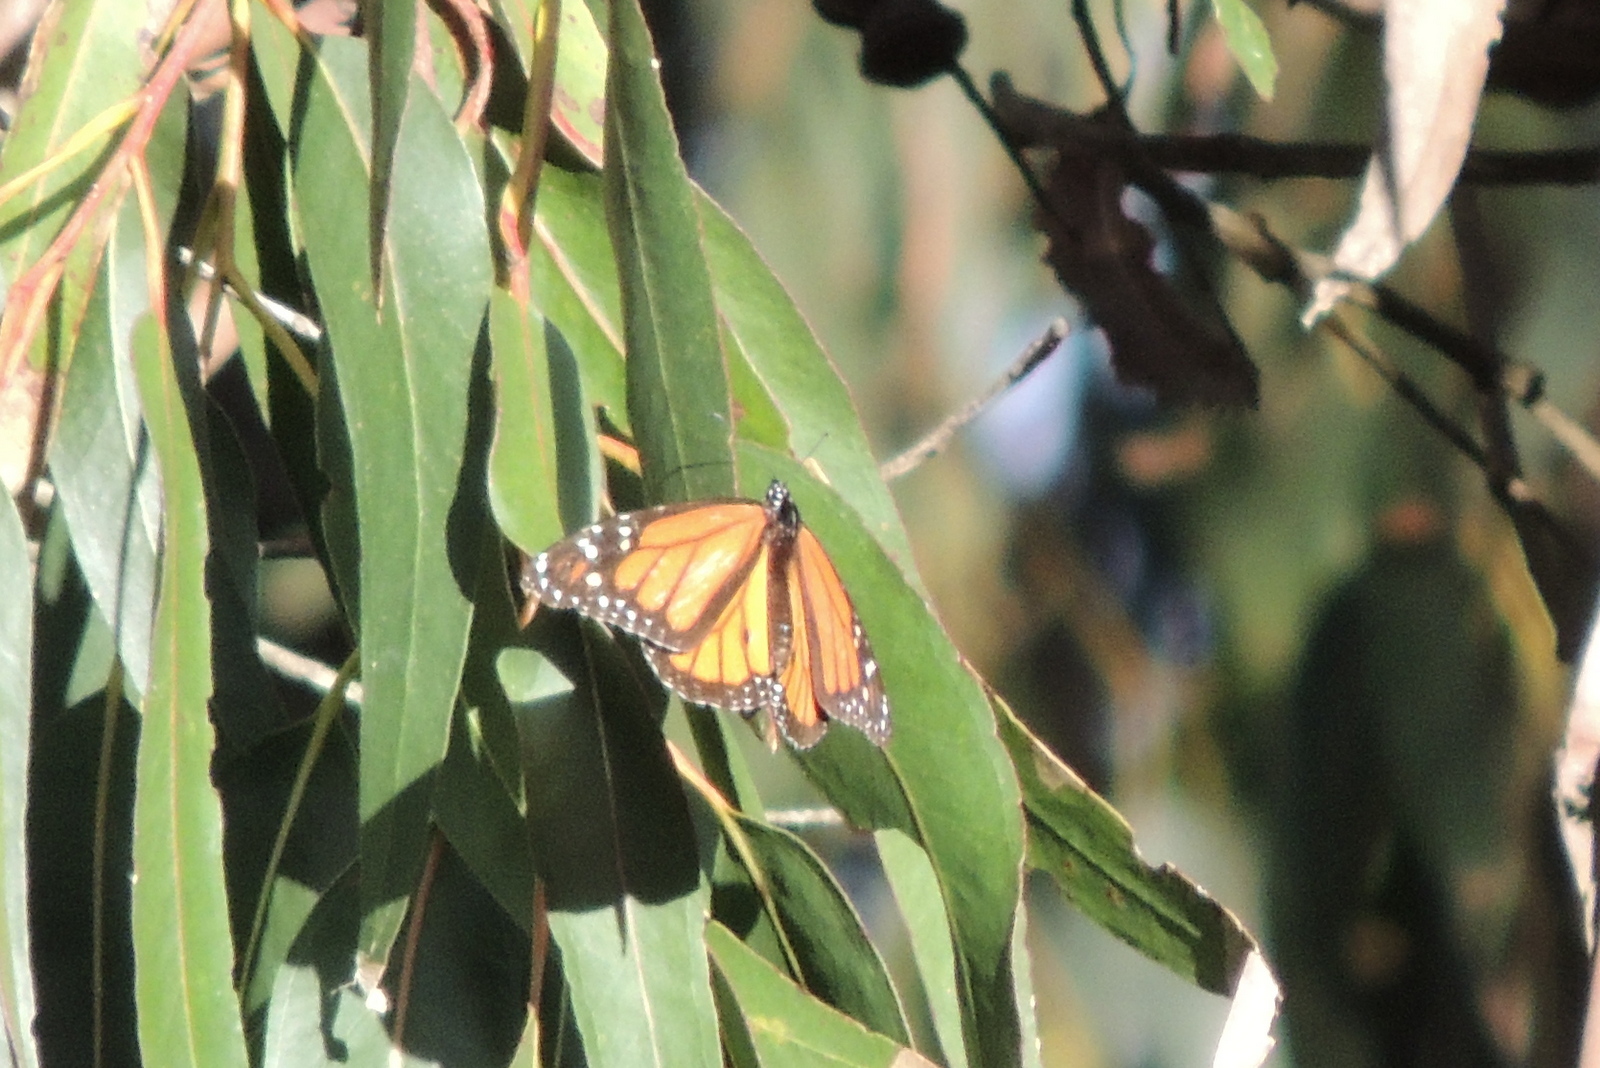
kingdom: Animalia
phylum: Arthropoda
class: Insecta
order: Lepidoptera
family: Nymphalidae
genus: Danaus
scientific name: Danaus plexippus
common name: Monarch
